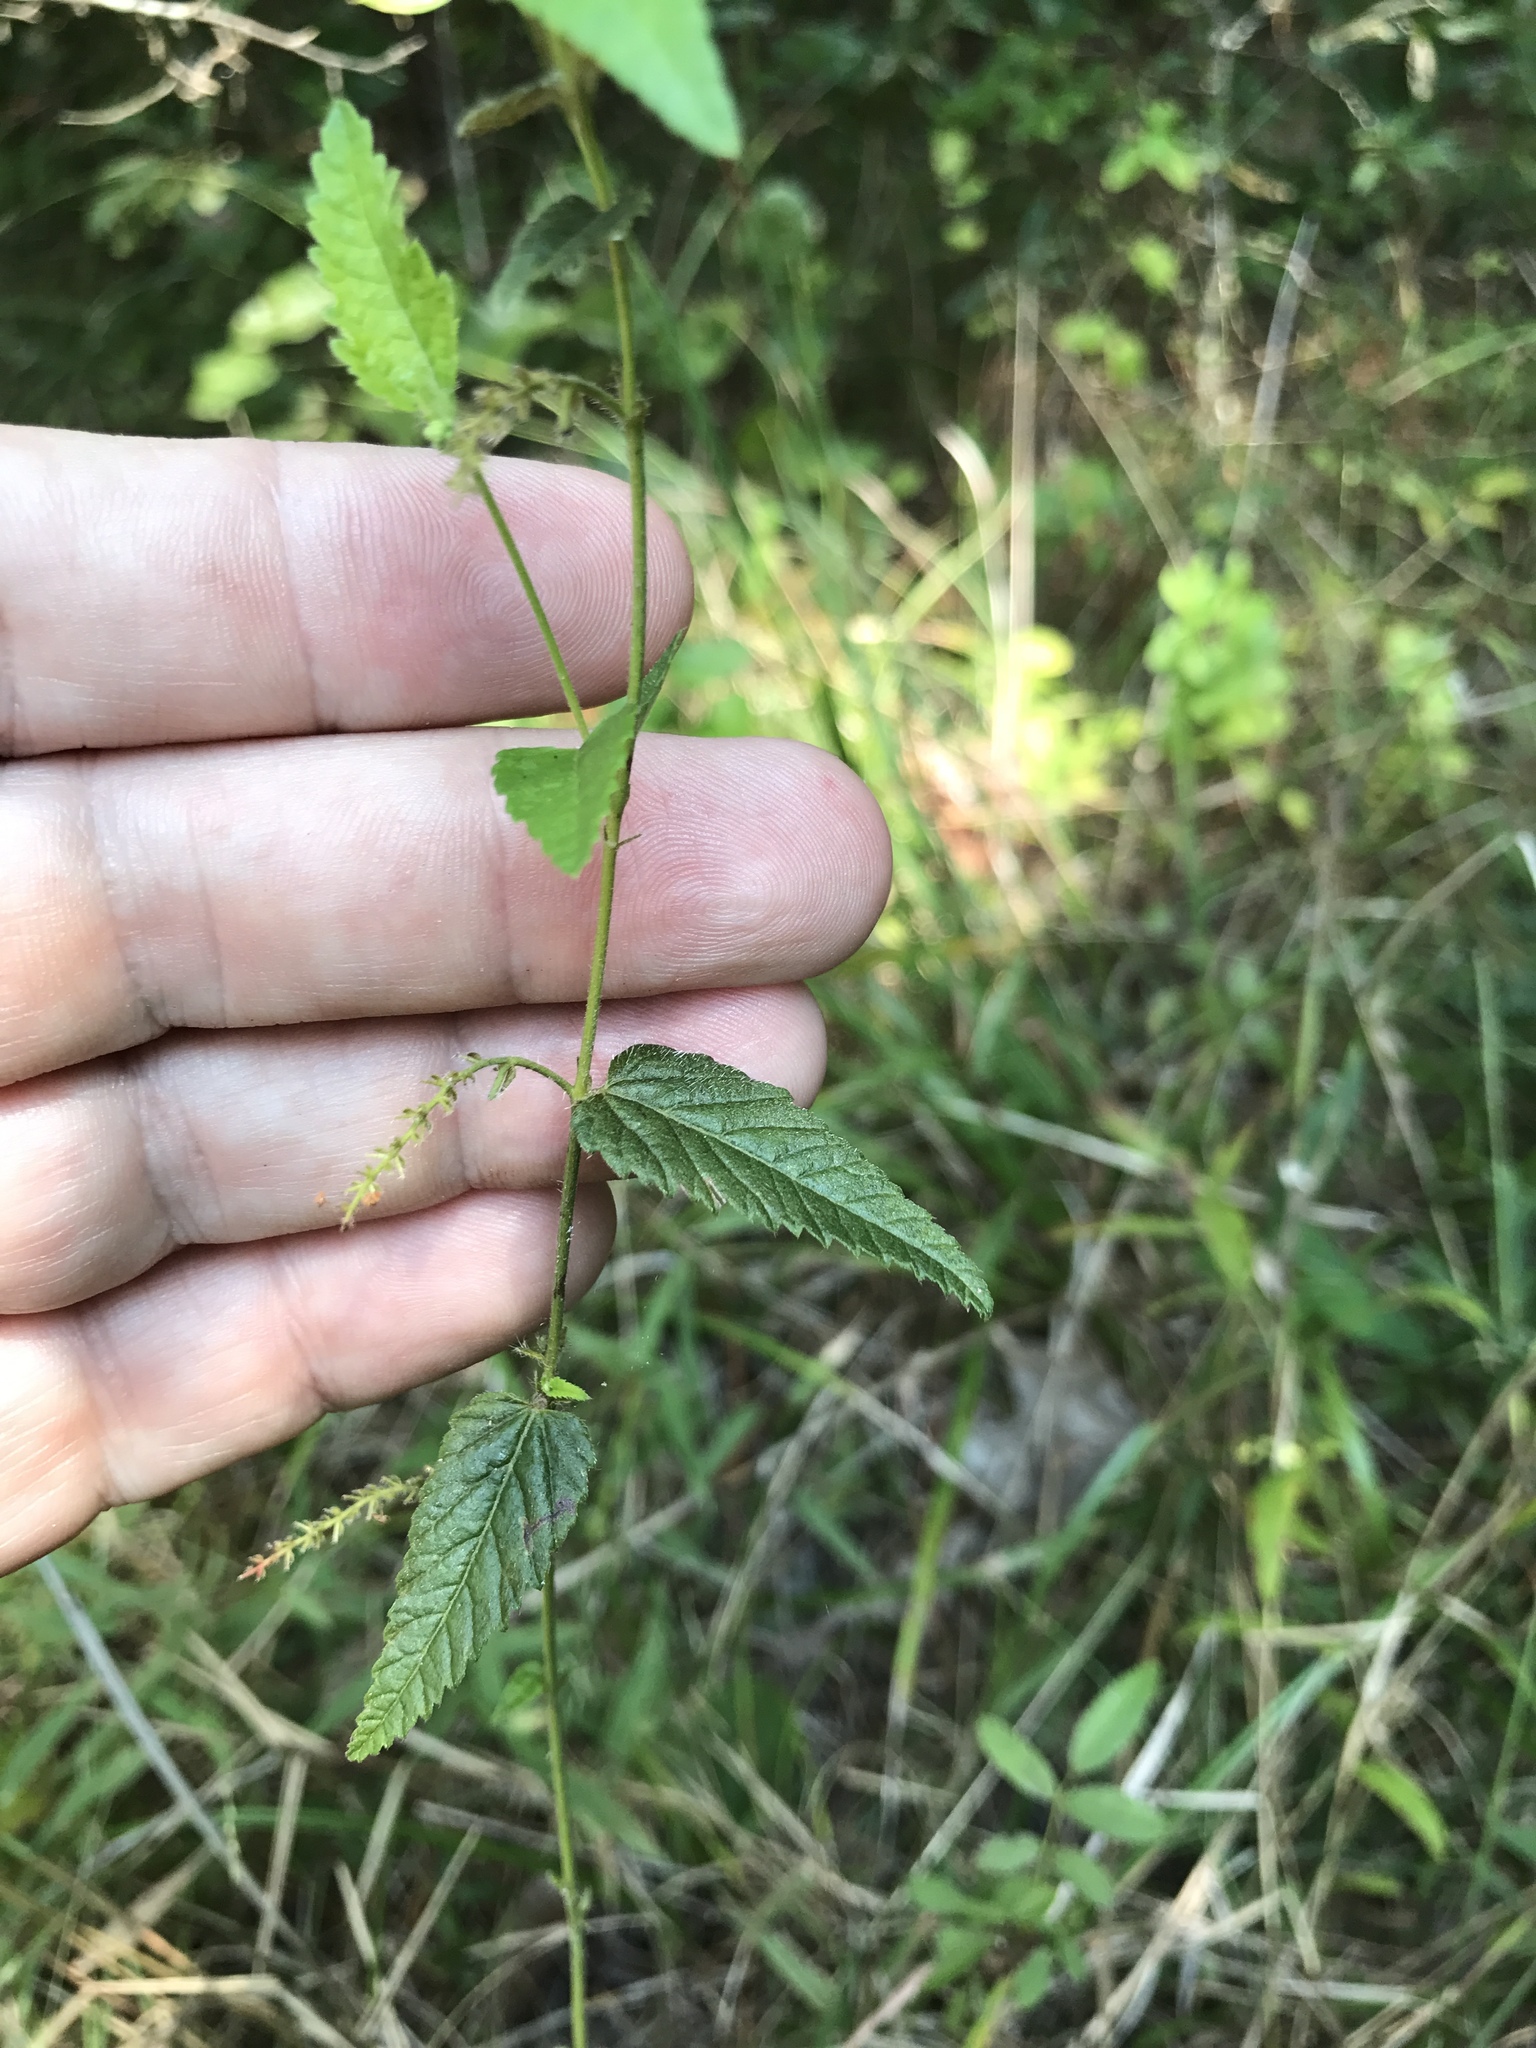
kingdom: Plantae
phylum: Tracheophyta
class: Magnoliopsida
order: Malpighiales
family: Euphorbiaceae
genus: Tragia
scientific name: Tragia urticifolia
